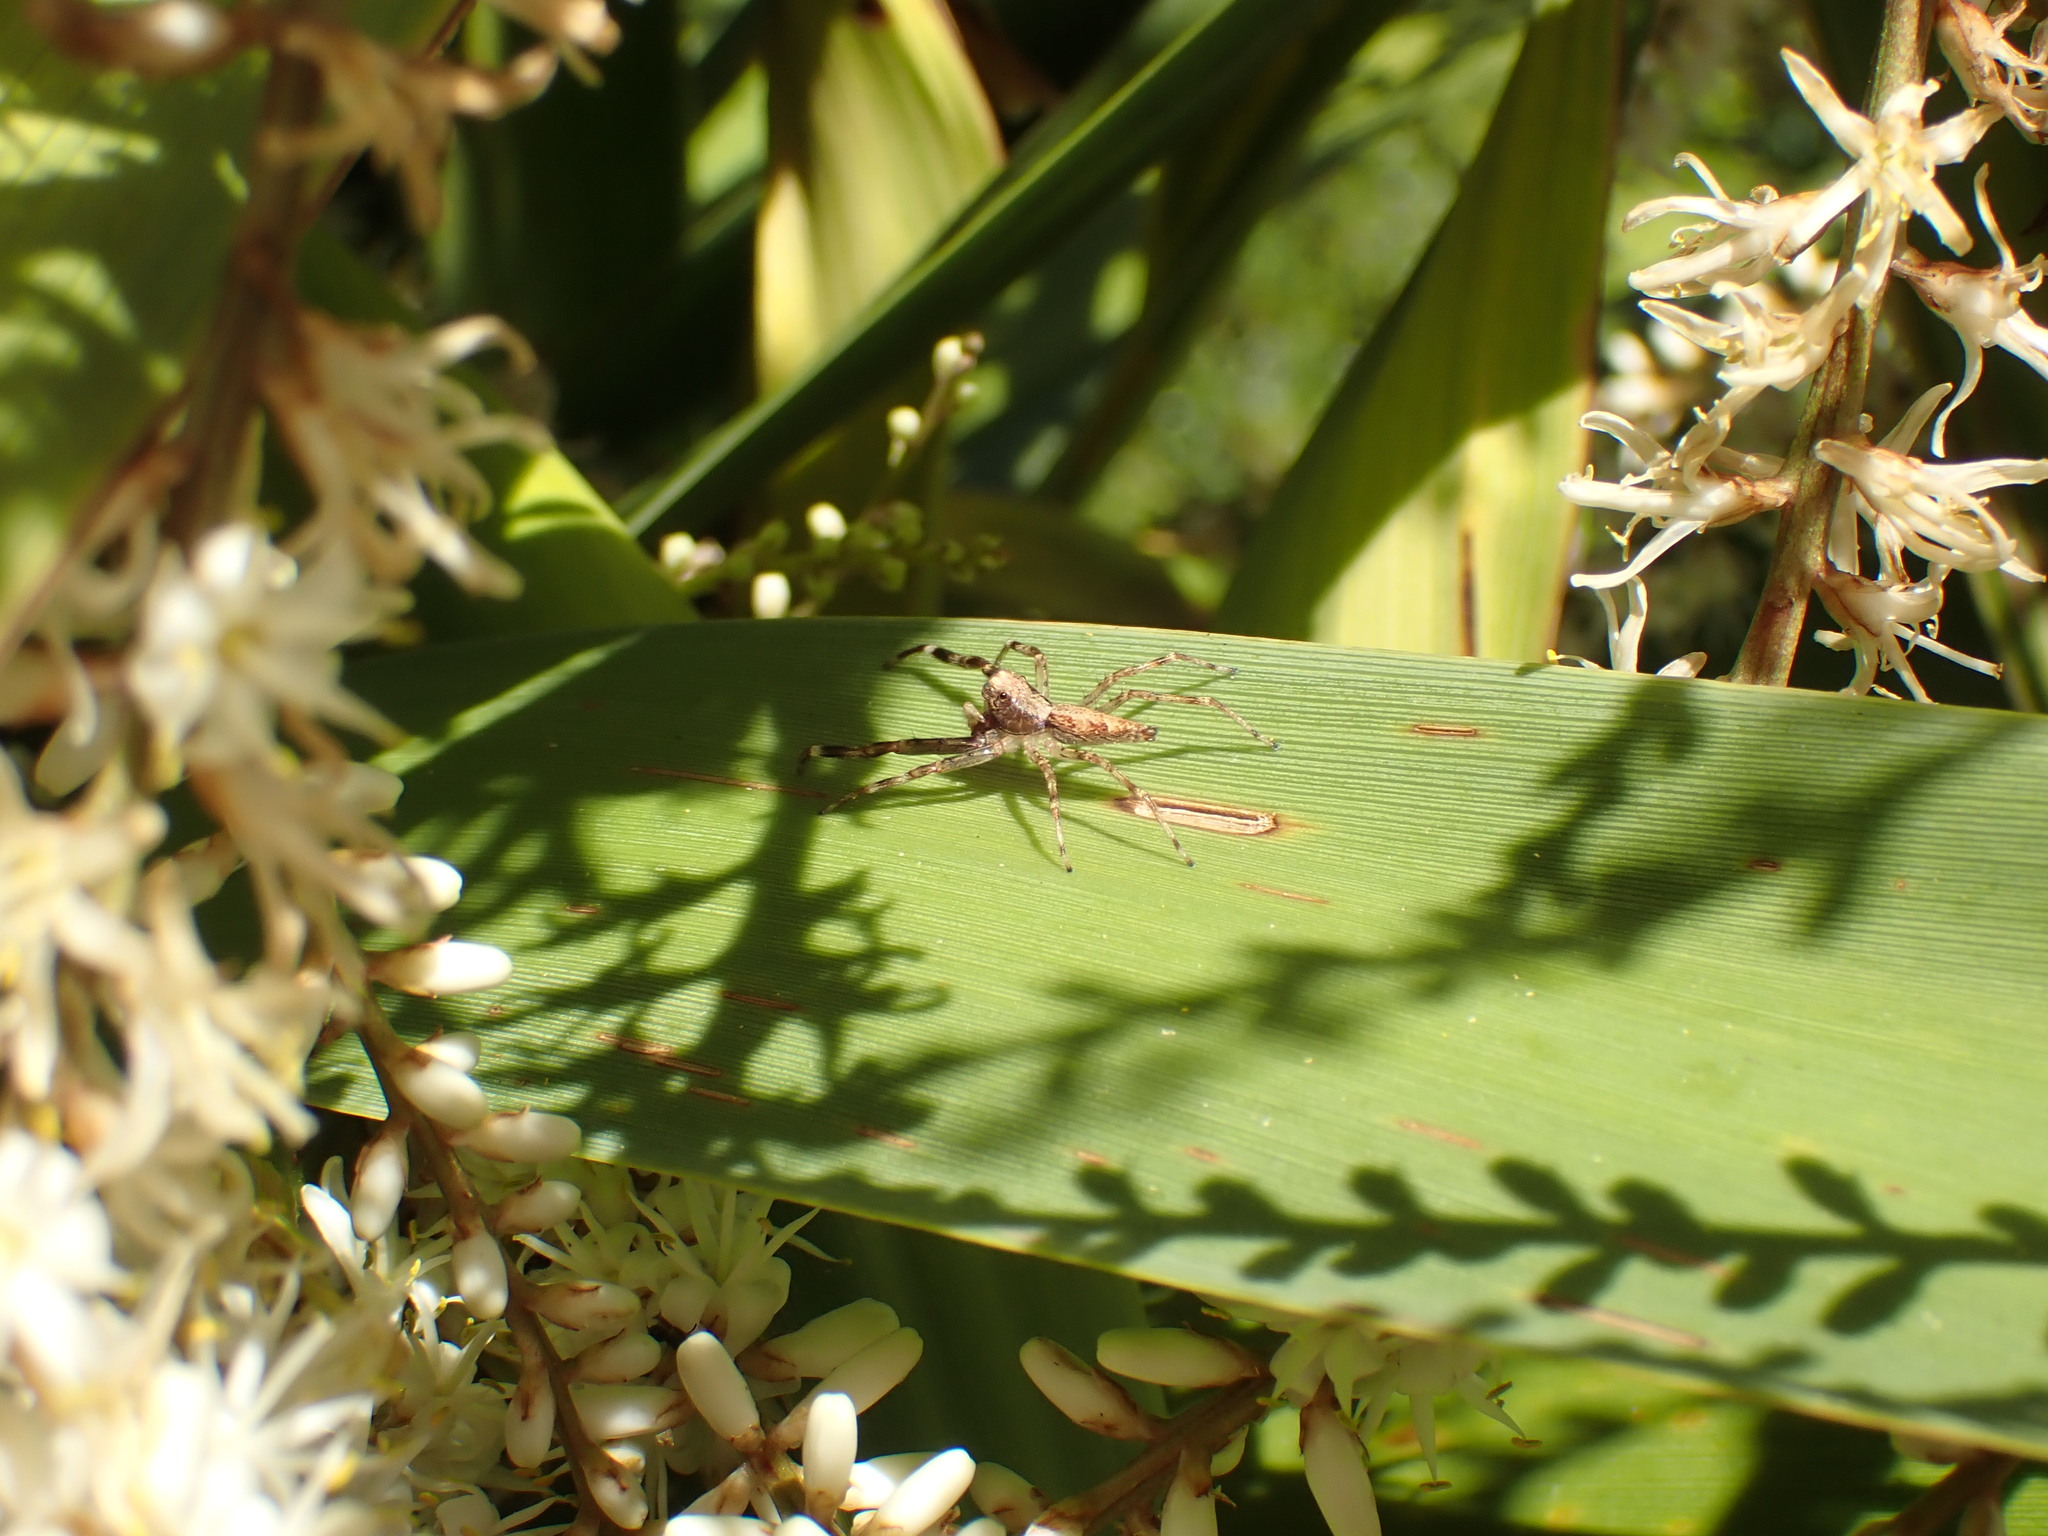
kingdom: Animalia
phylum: Arthropoda
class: Arachnida
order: Araneae
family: Salticidae
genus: Helpis
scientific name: Helpis minitabunda
